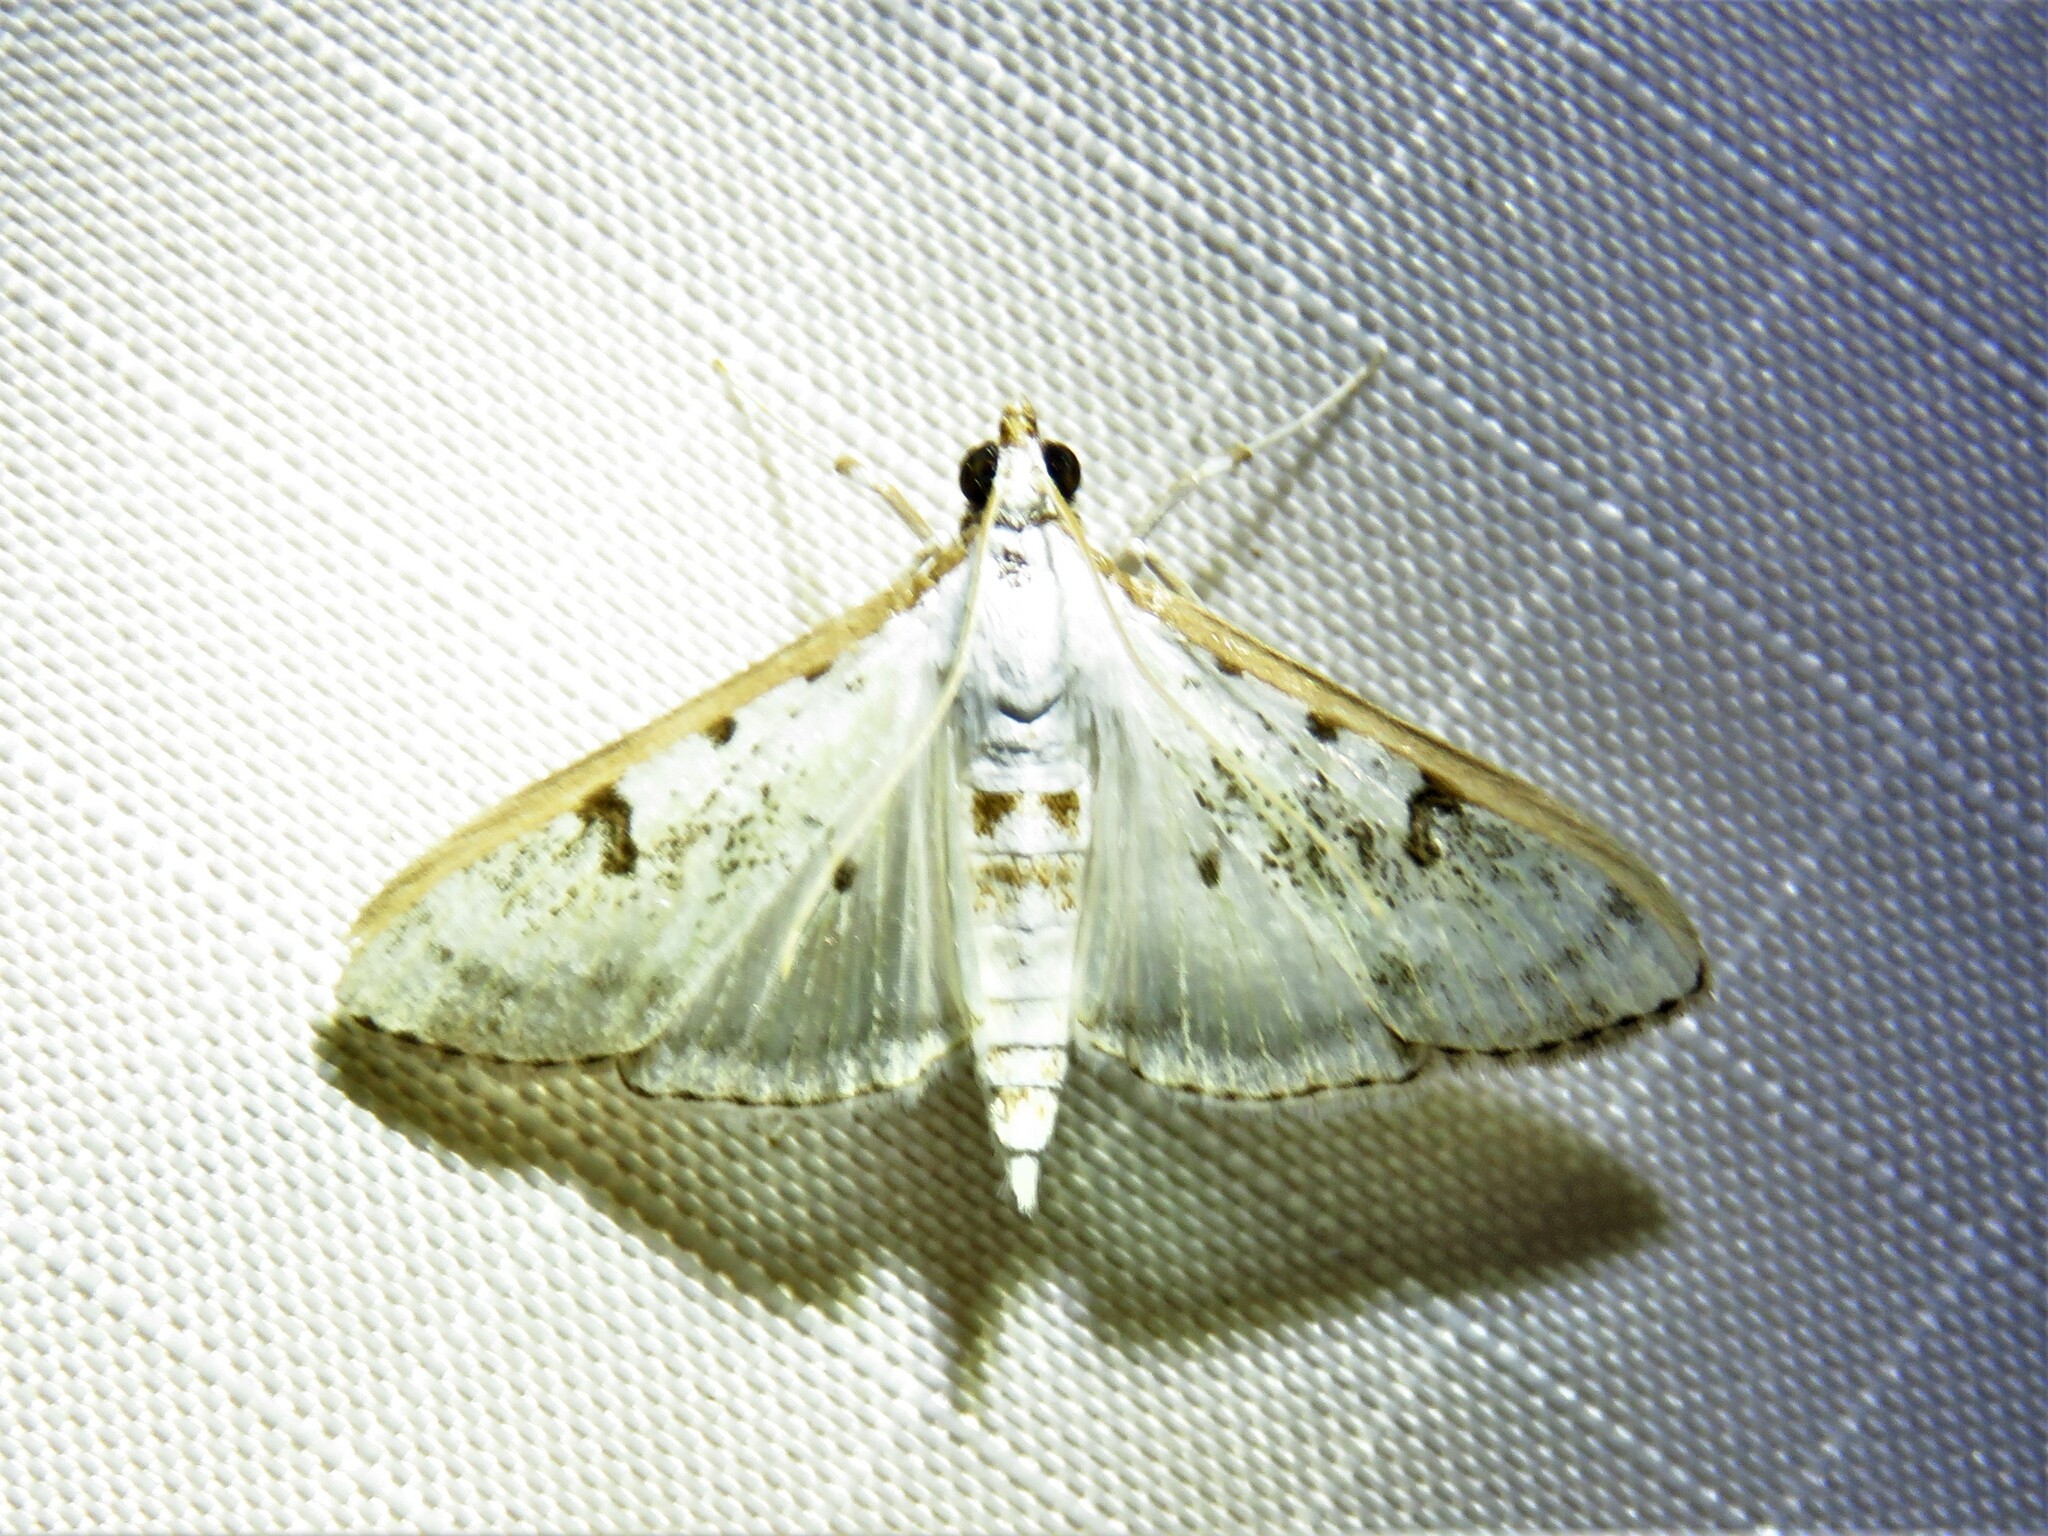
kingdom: Animalia
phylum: Arthropoda
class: Insecta
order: Lepidoptera
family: Crambidae
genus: Palpita
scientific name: Palpita gracilalis
